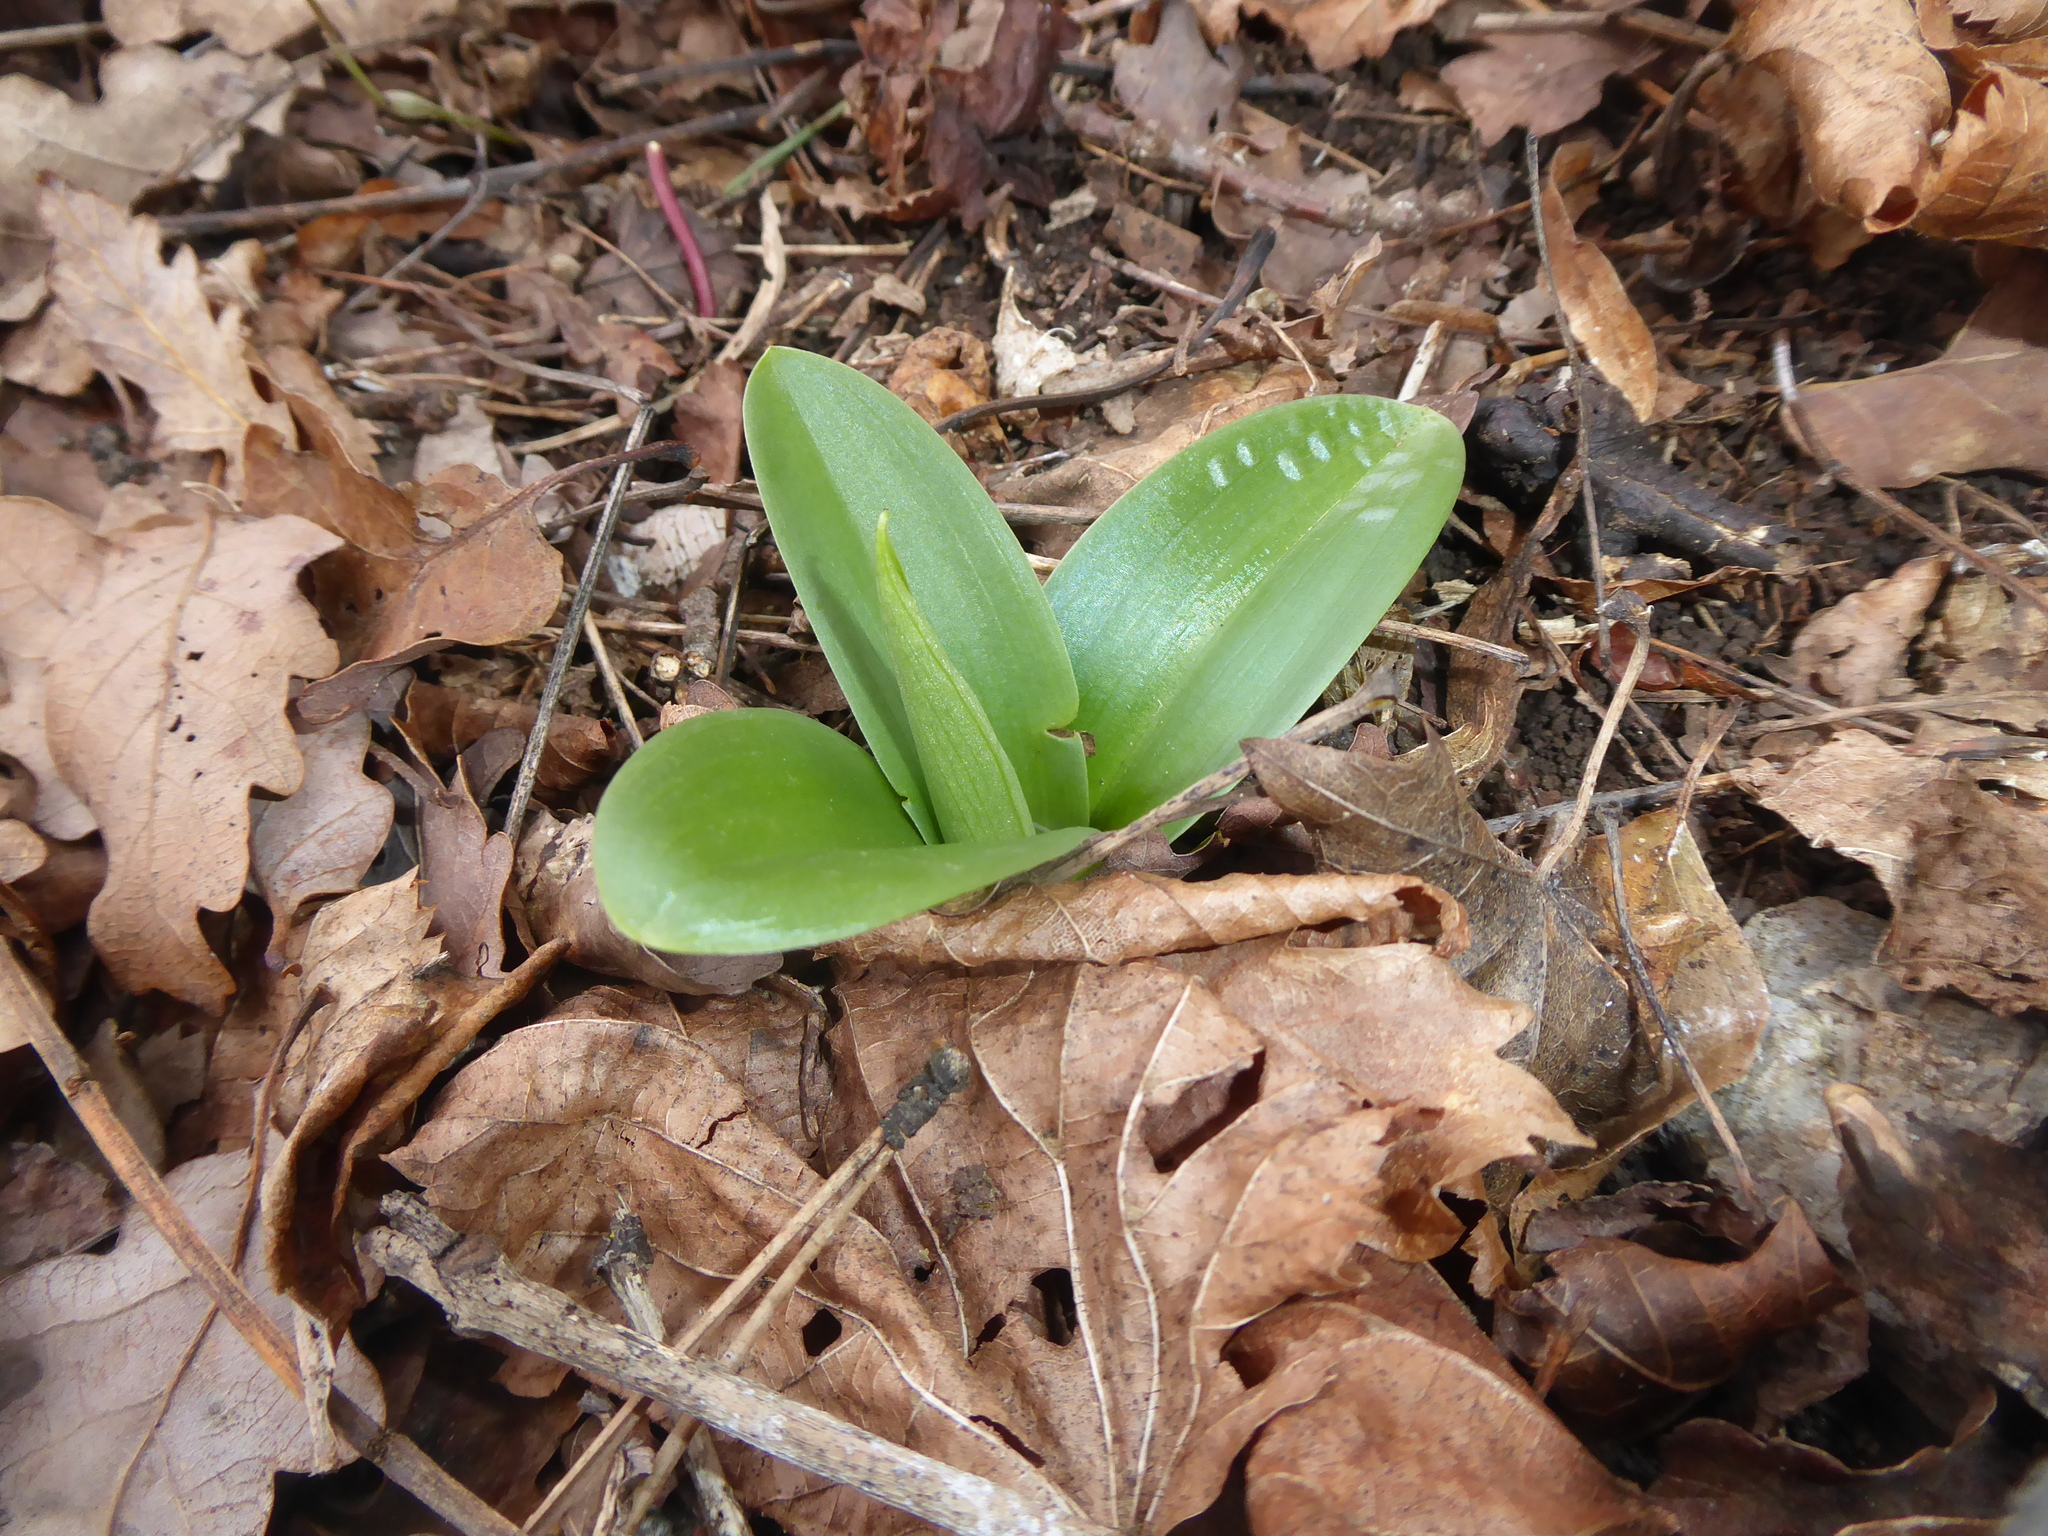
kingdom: Plantae
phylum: Tracheophyta
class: Liliopsida
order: Asparagales
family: Orchidaceae
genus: Orchis
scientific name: Orchis pallens
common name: Pale-flowered orchid
